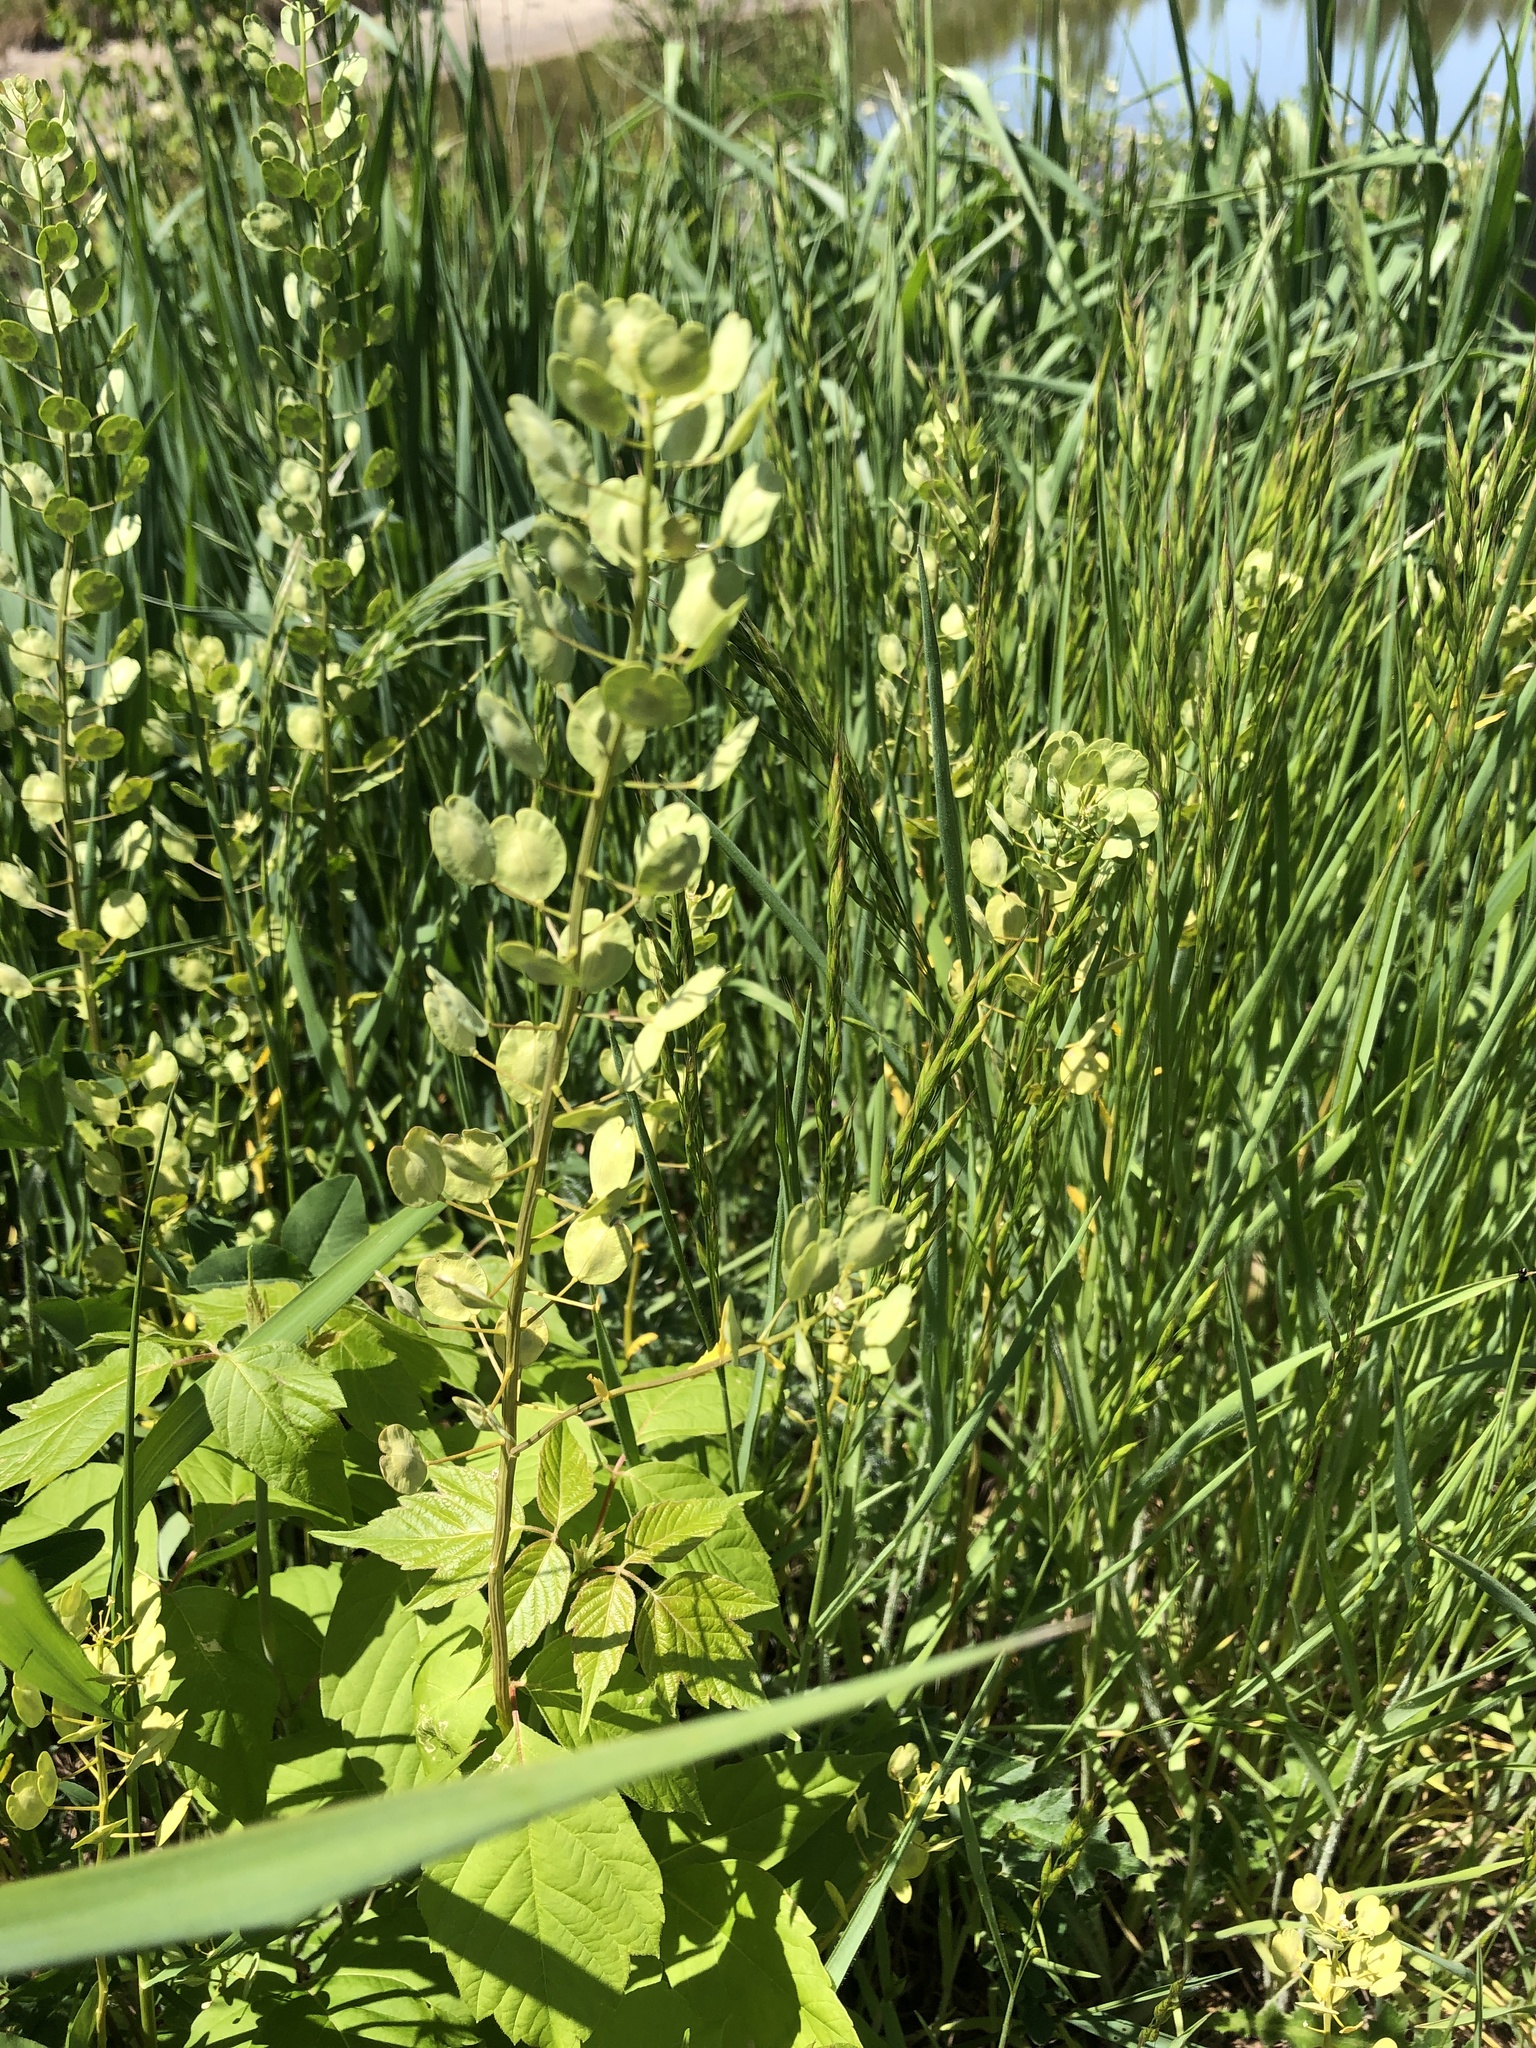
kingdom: Plantae
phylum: Tracheophyta
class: Magnoliopsida
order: Brassicales
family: Brassicaceae
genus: Thlaspi
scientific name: Thlaspi arvense
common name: Field pennycress
